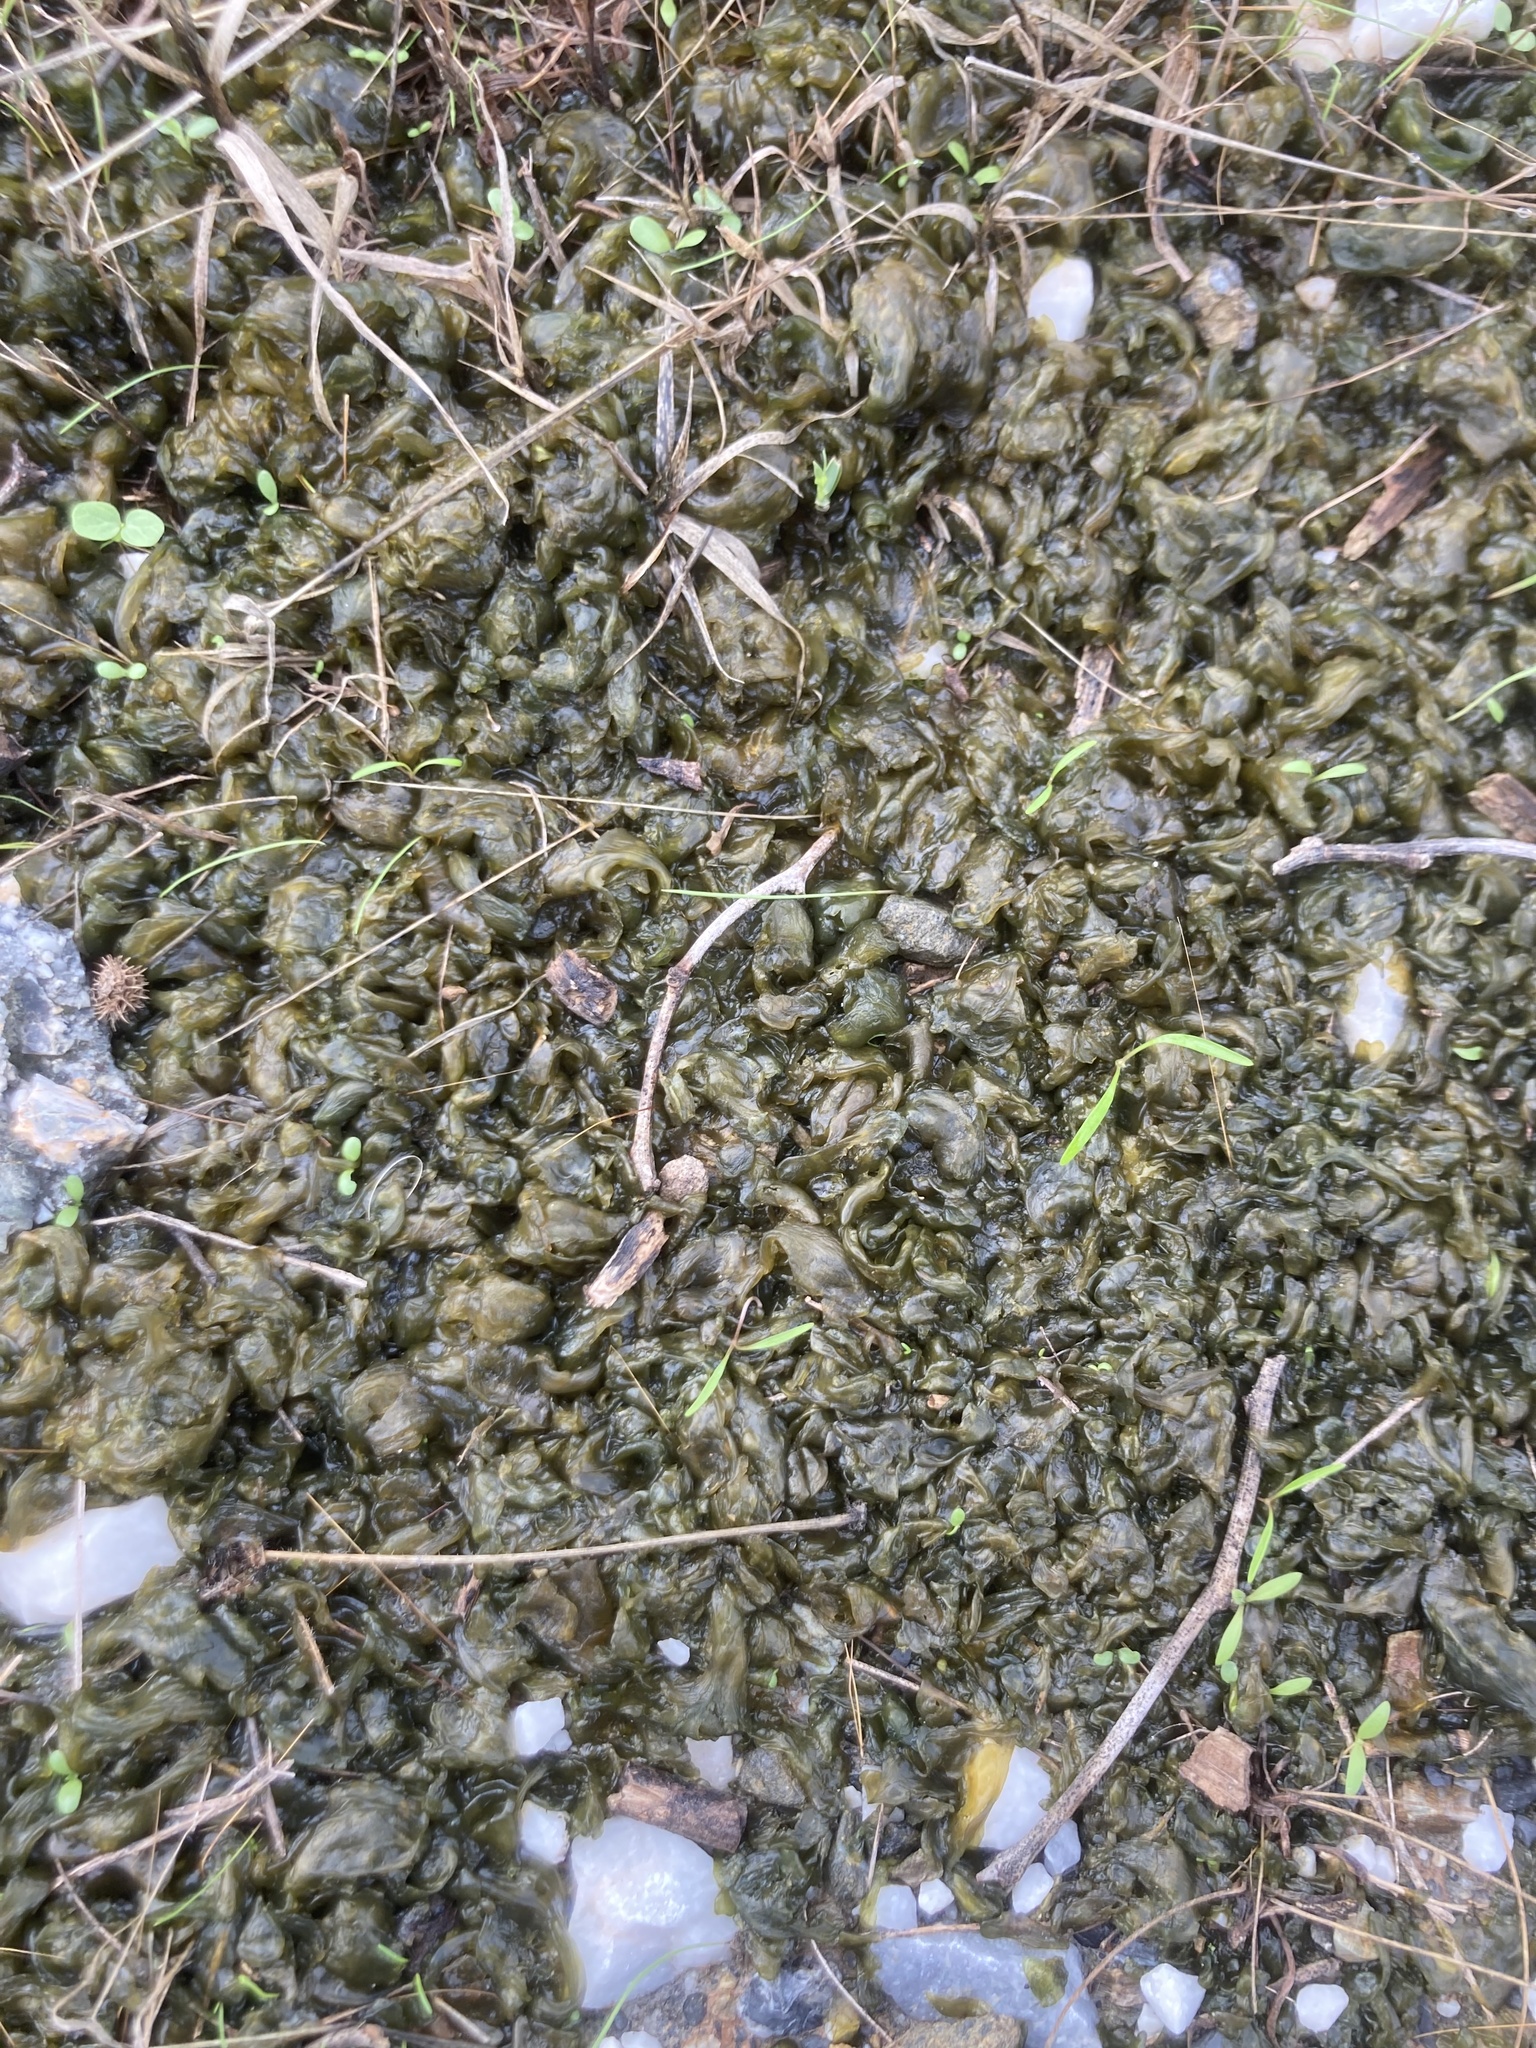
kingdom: Bacteria
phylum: Cyanobacteria
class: Cyanobacteriia
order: Cyanobacteriales
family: Nostocaceae
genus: Nostoc
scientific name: Nostoc commune
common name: Star jelly
